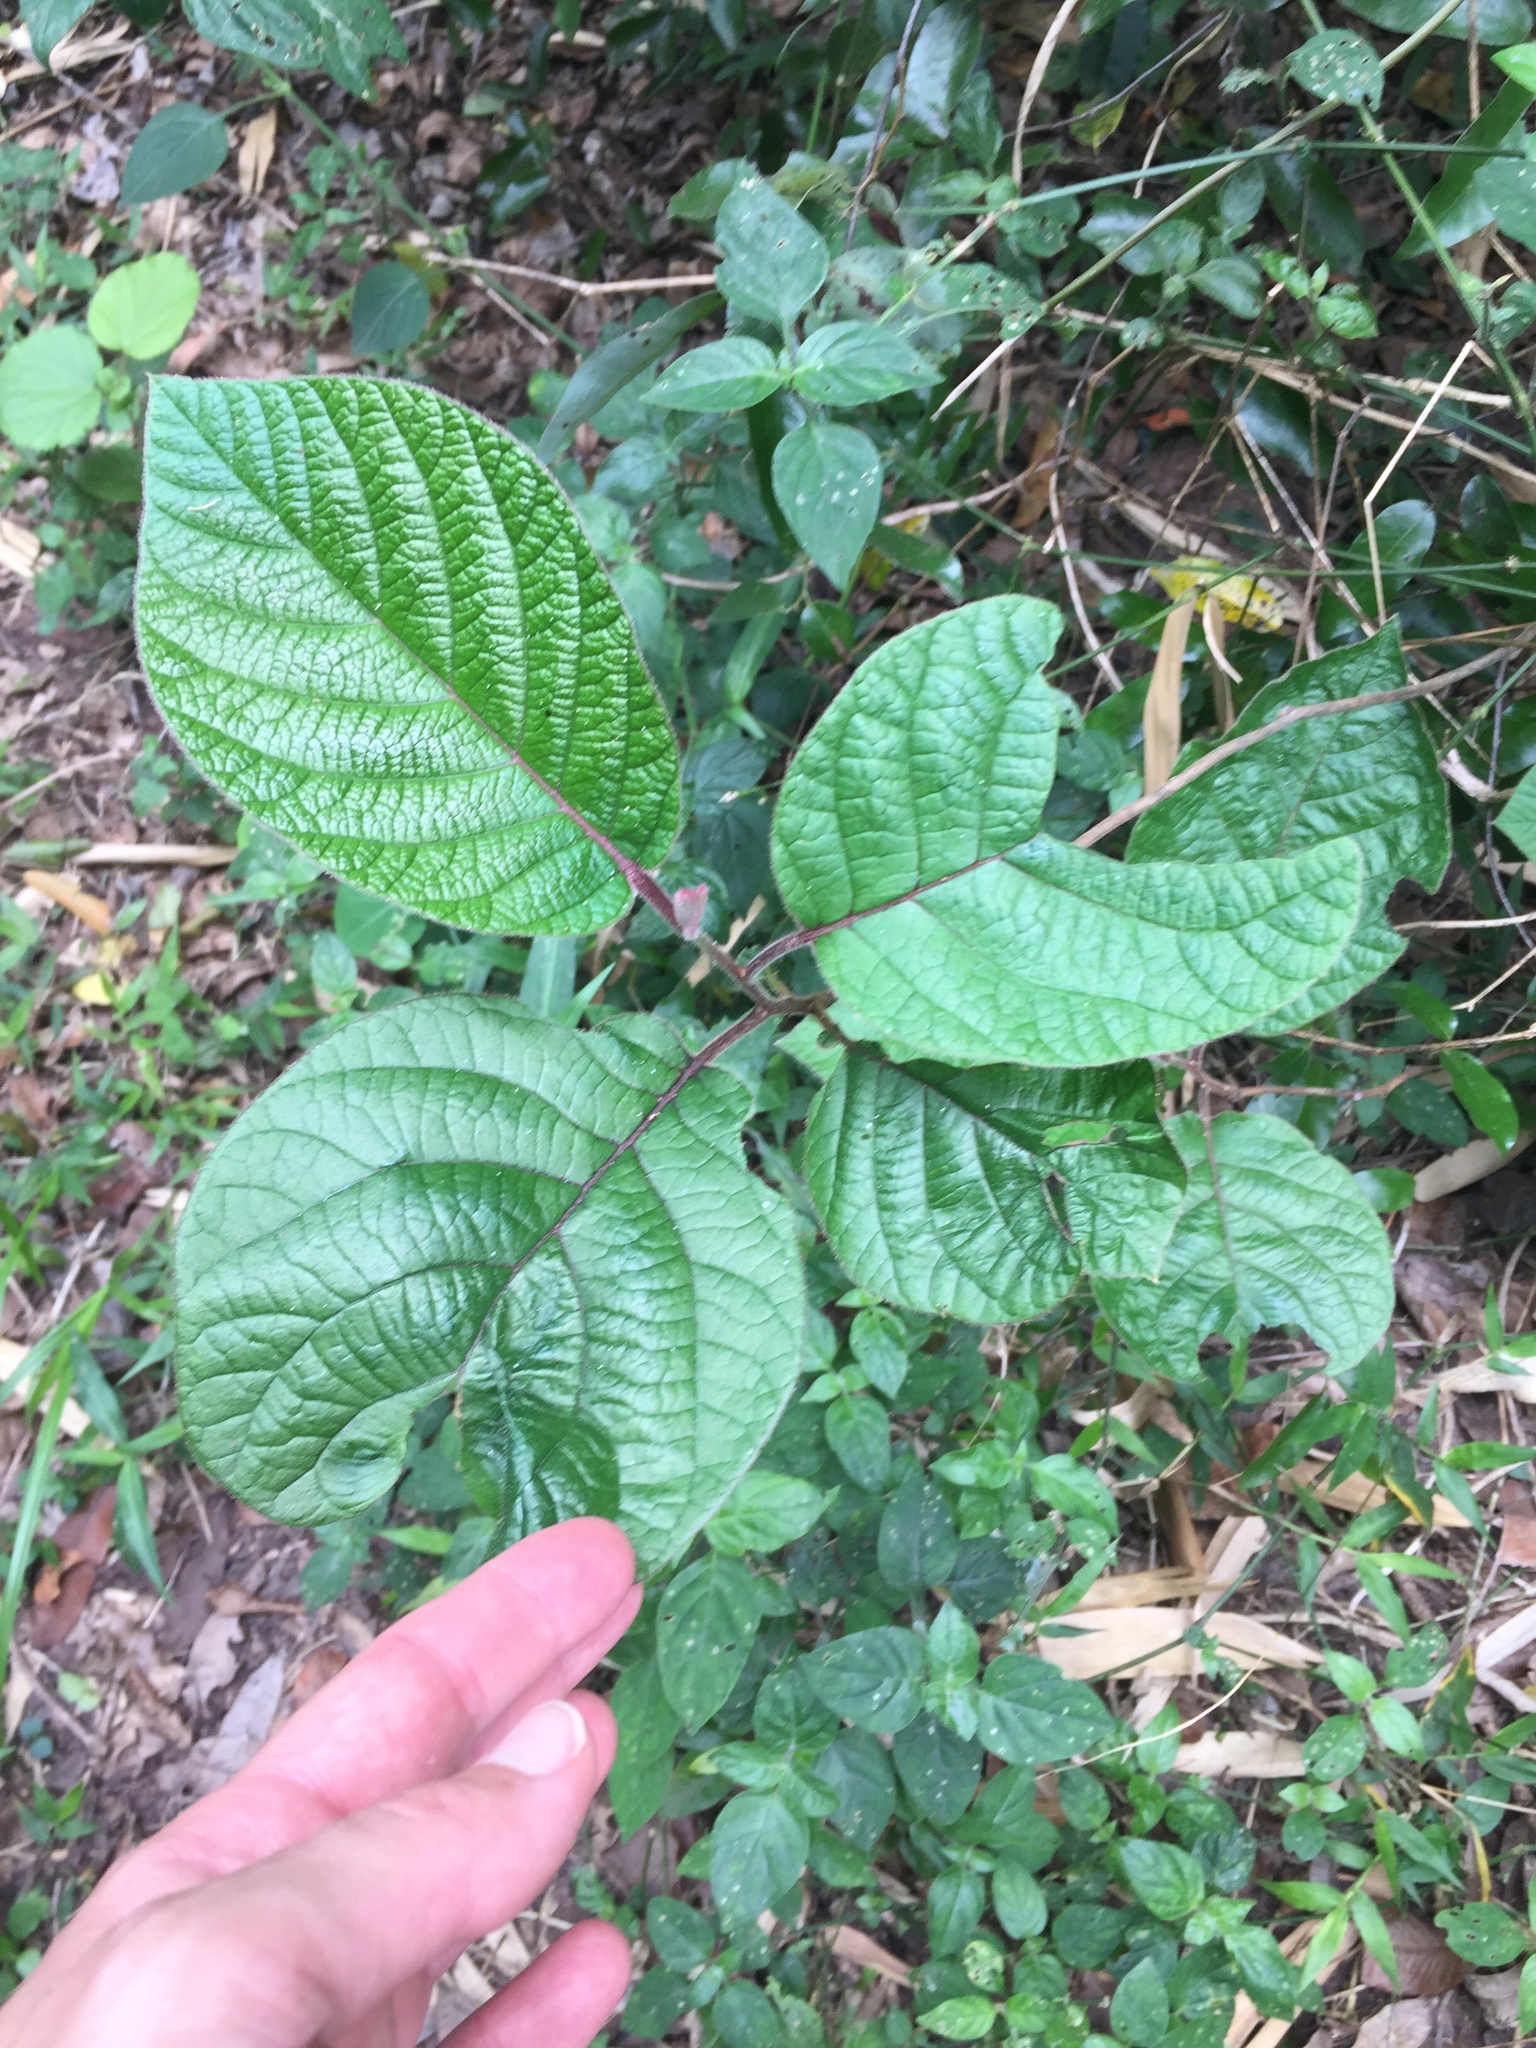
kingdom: Plantae
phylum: Tracheophyta
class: Magnoliopsida
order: Ericales
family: Ebenaceae
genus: Diospyros
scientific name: Diospyros villosa
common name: Hairy star-apple
